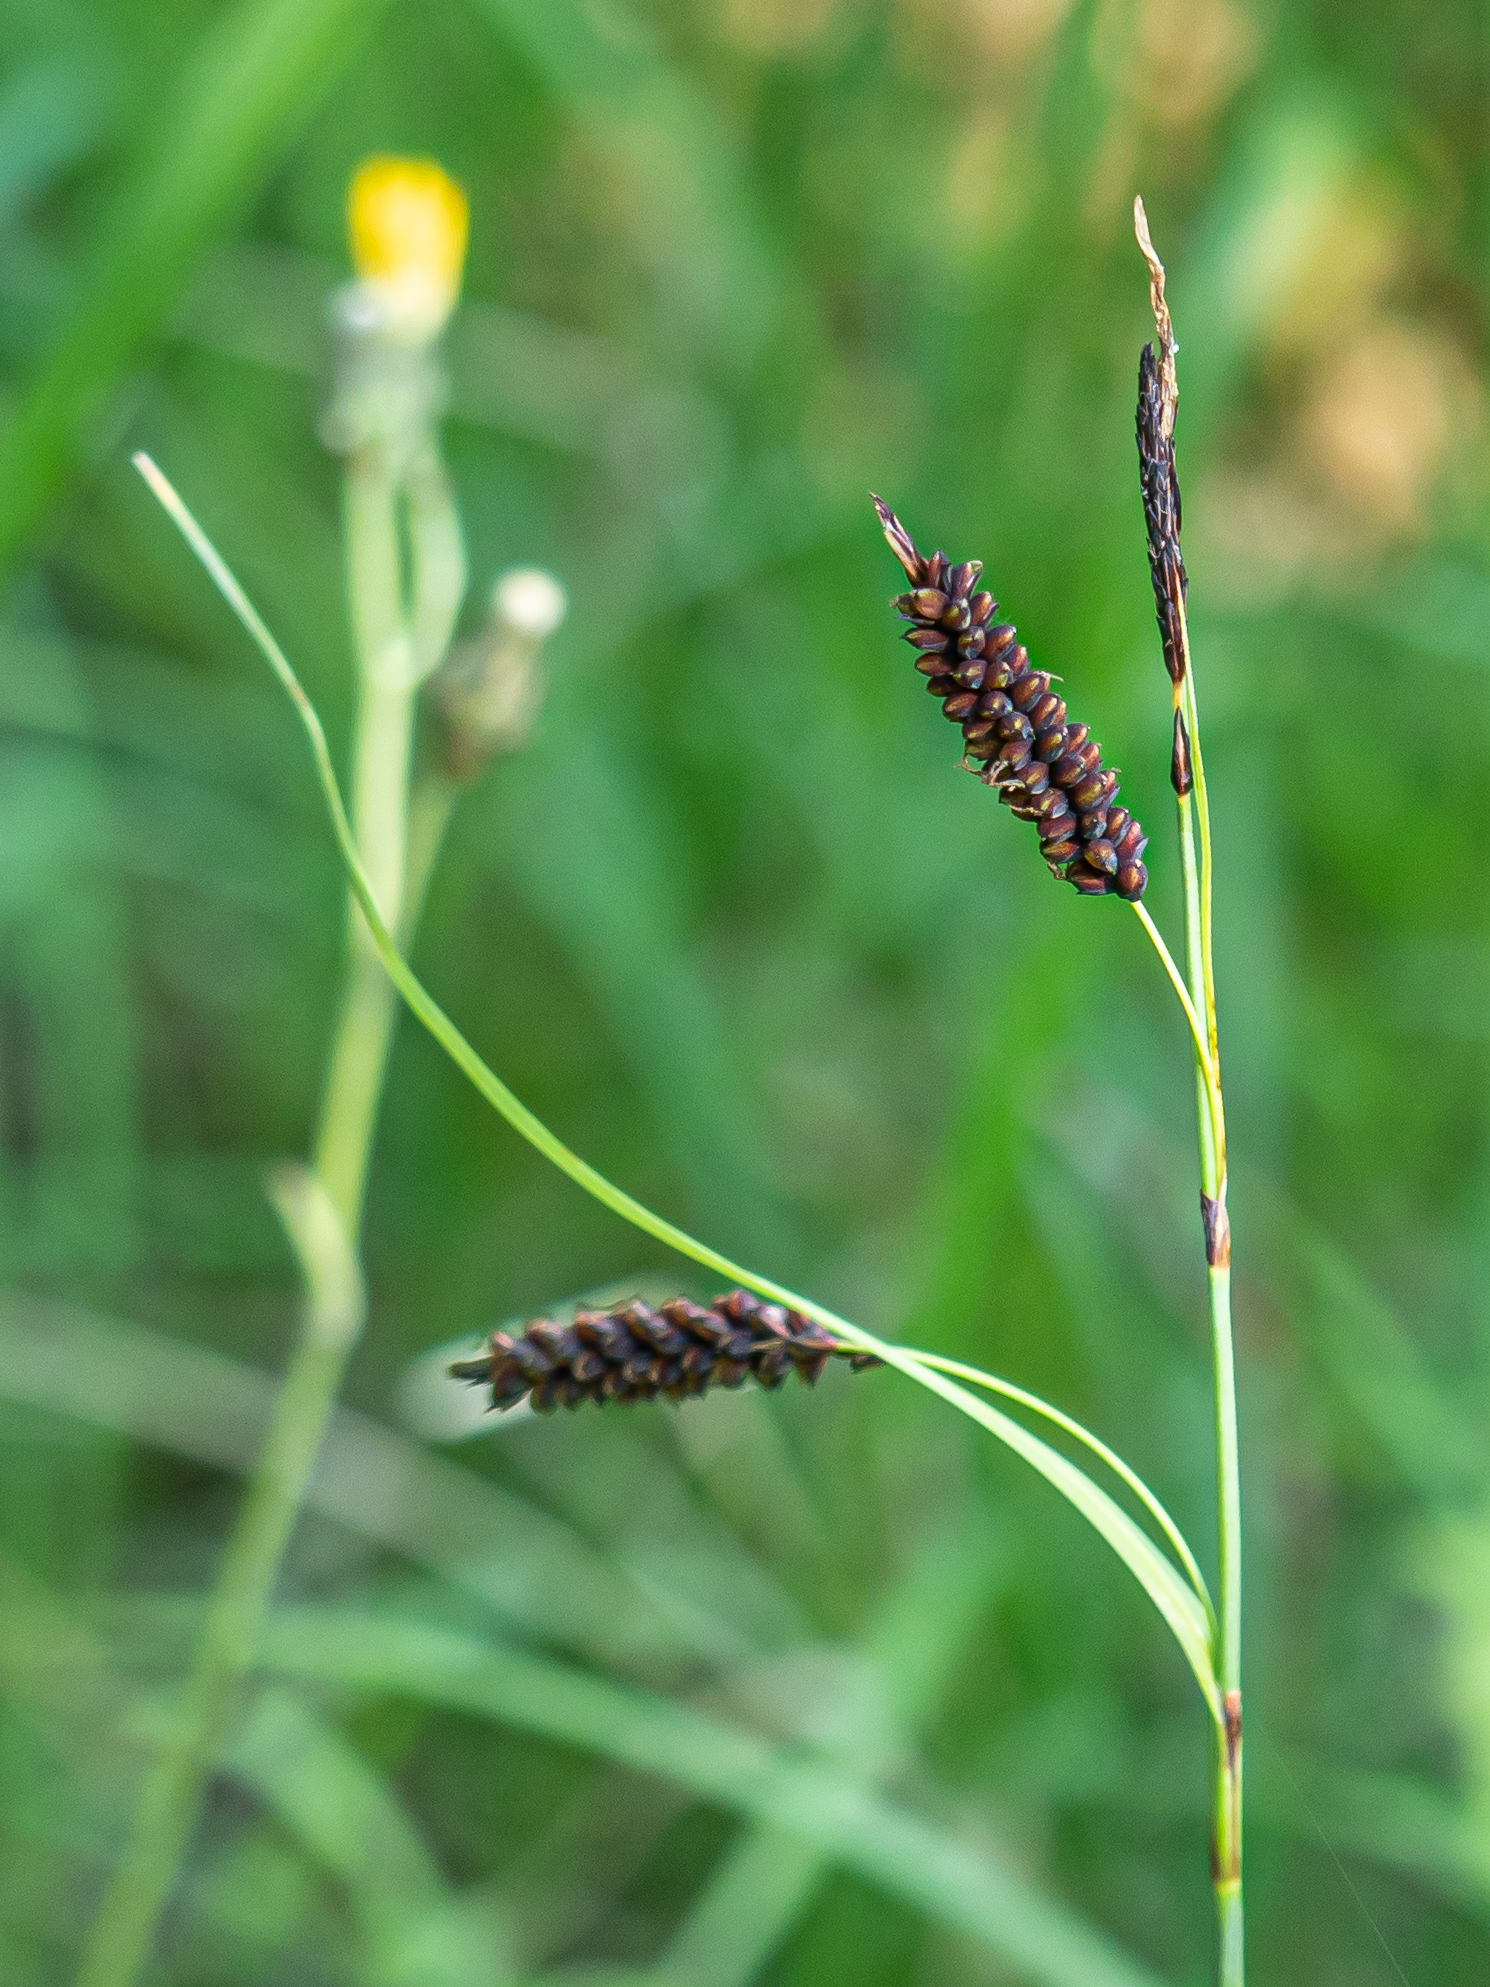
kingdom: Plantae
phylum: Tracheophyta
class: Liliopsida
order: Poales
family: Cyperaceae
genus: Carex
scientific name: Carex flacca
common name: Glaucous sedge
